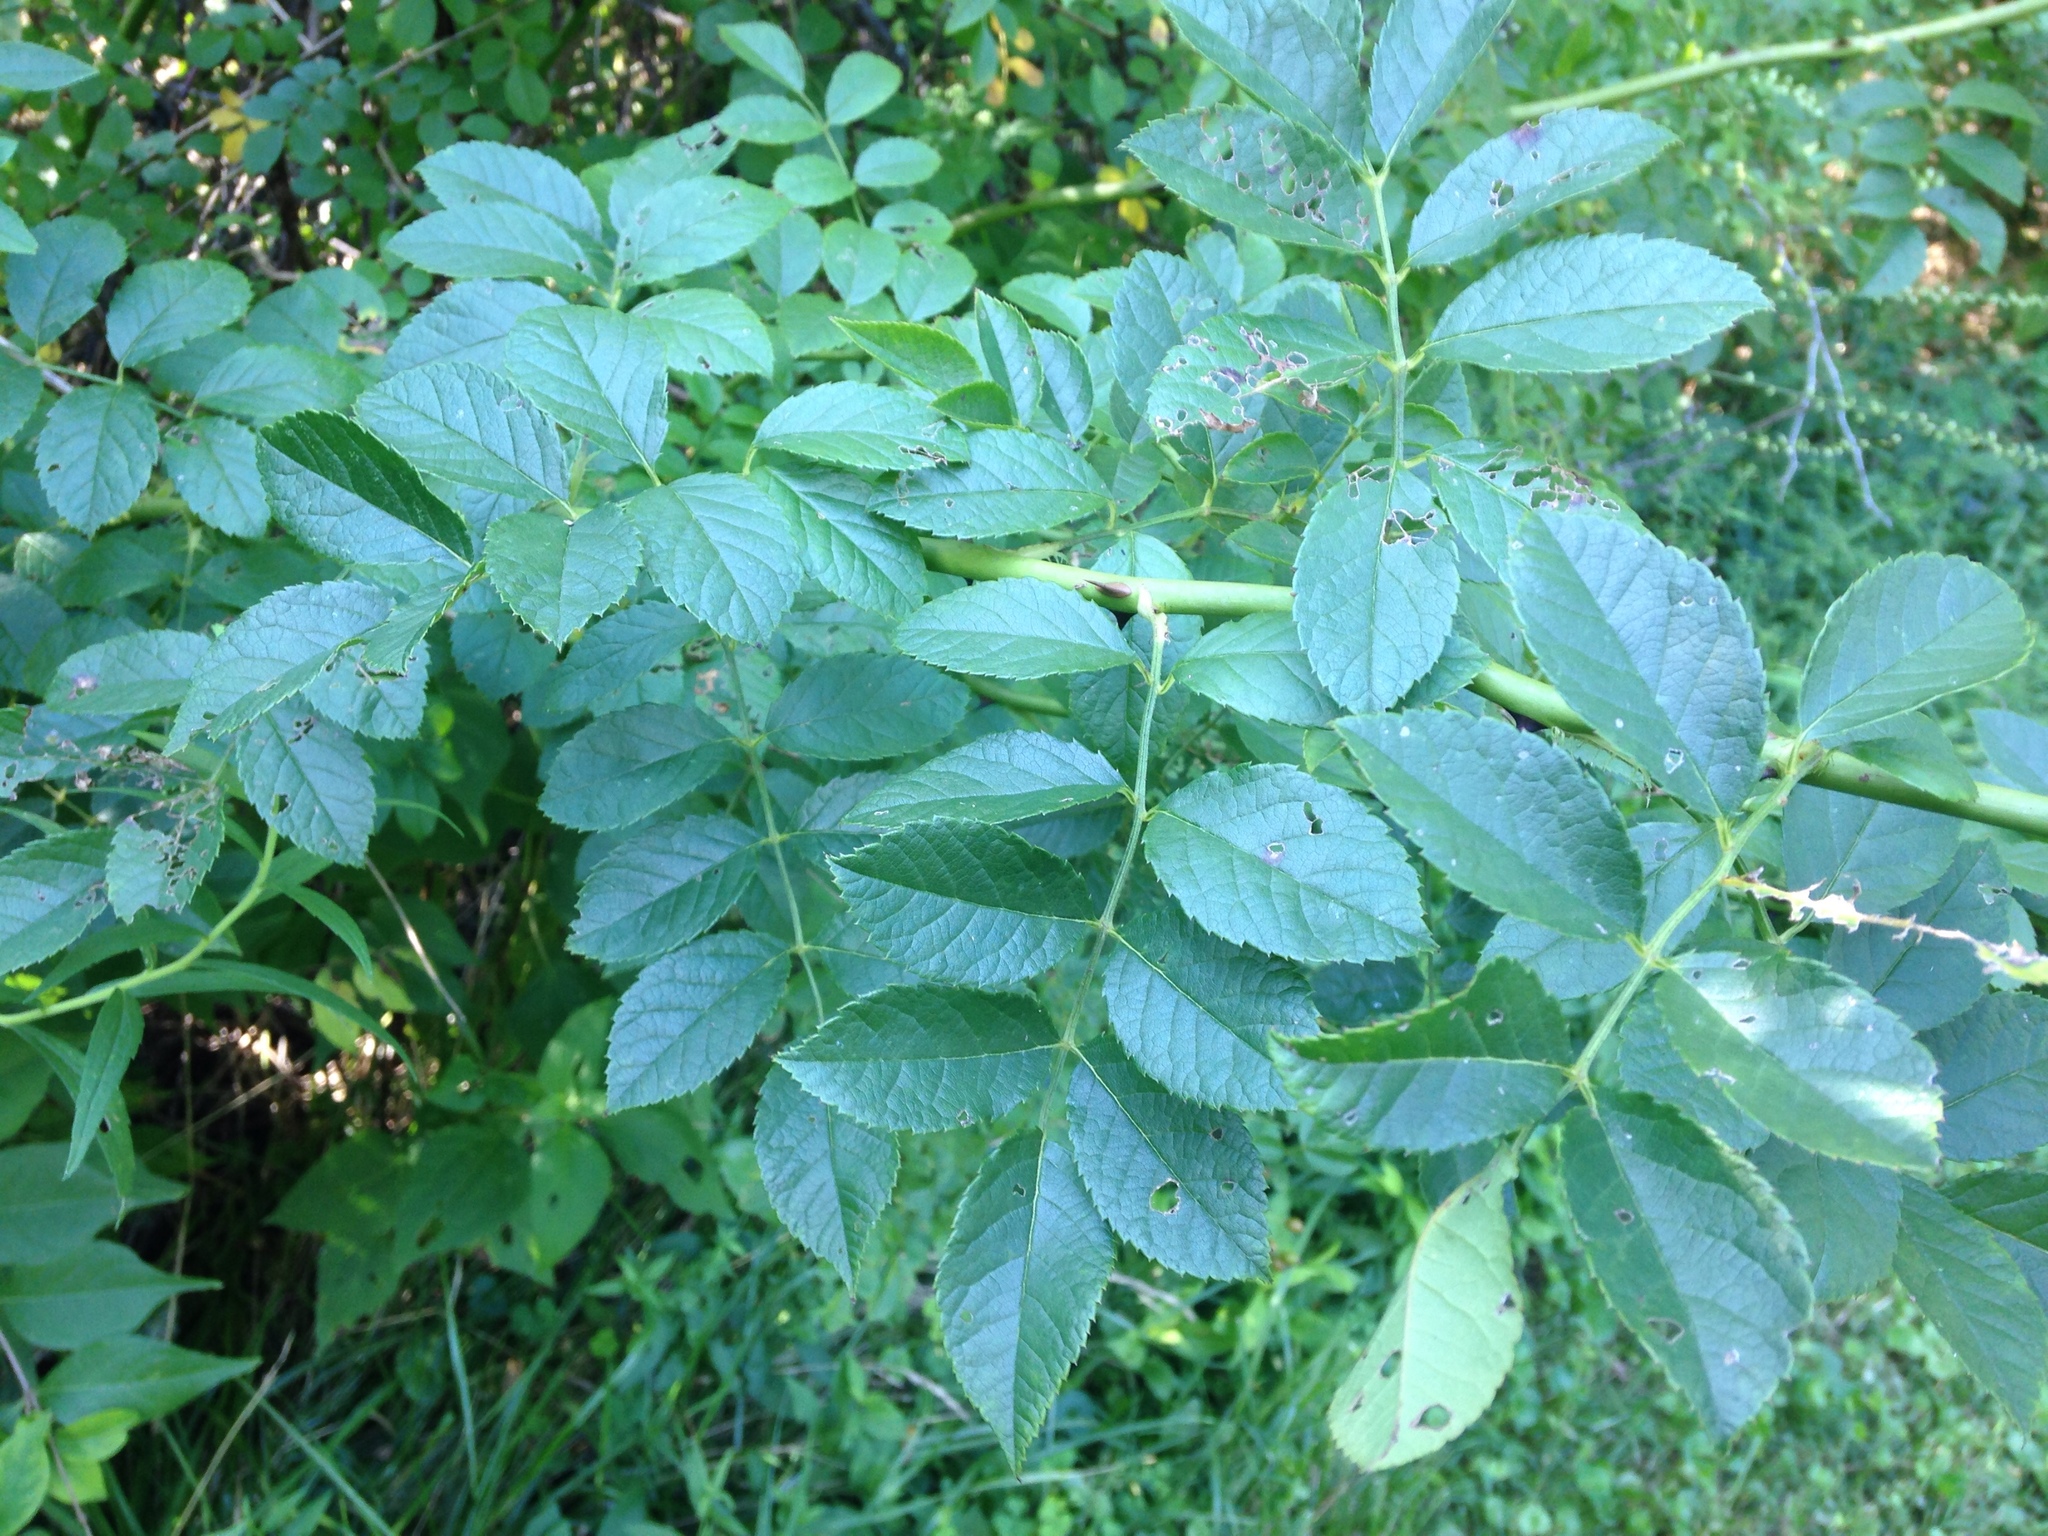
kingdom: Plantae
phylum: Tracheophyta
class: Magnoliopsida
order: Rosales
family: Rosaceae
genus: Rosa
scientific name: Rosa multiflora
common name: Multiflora rose
